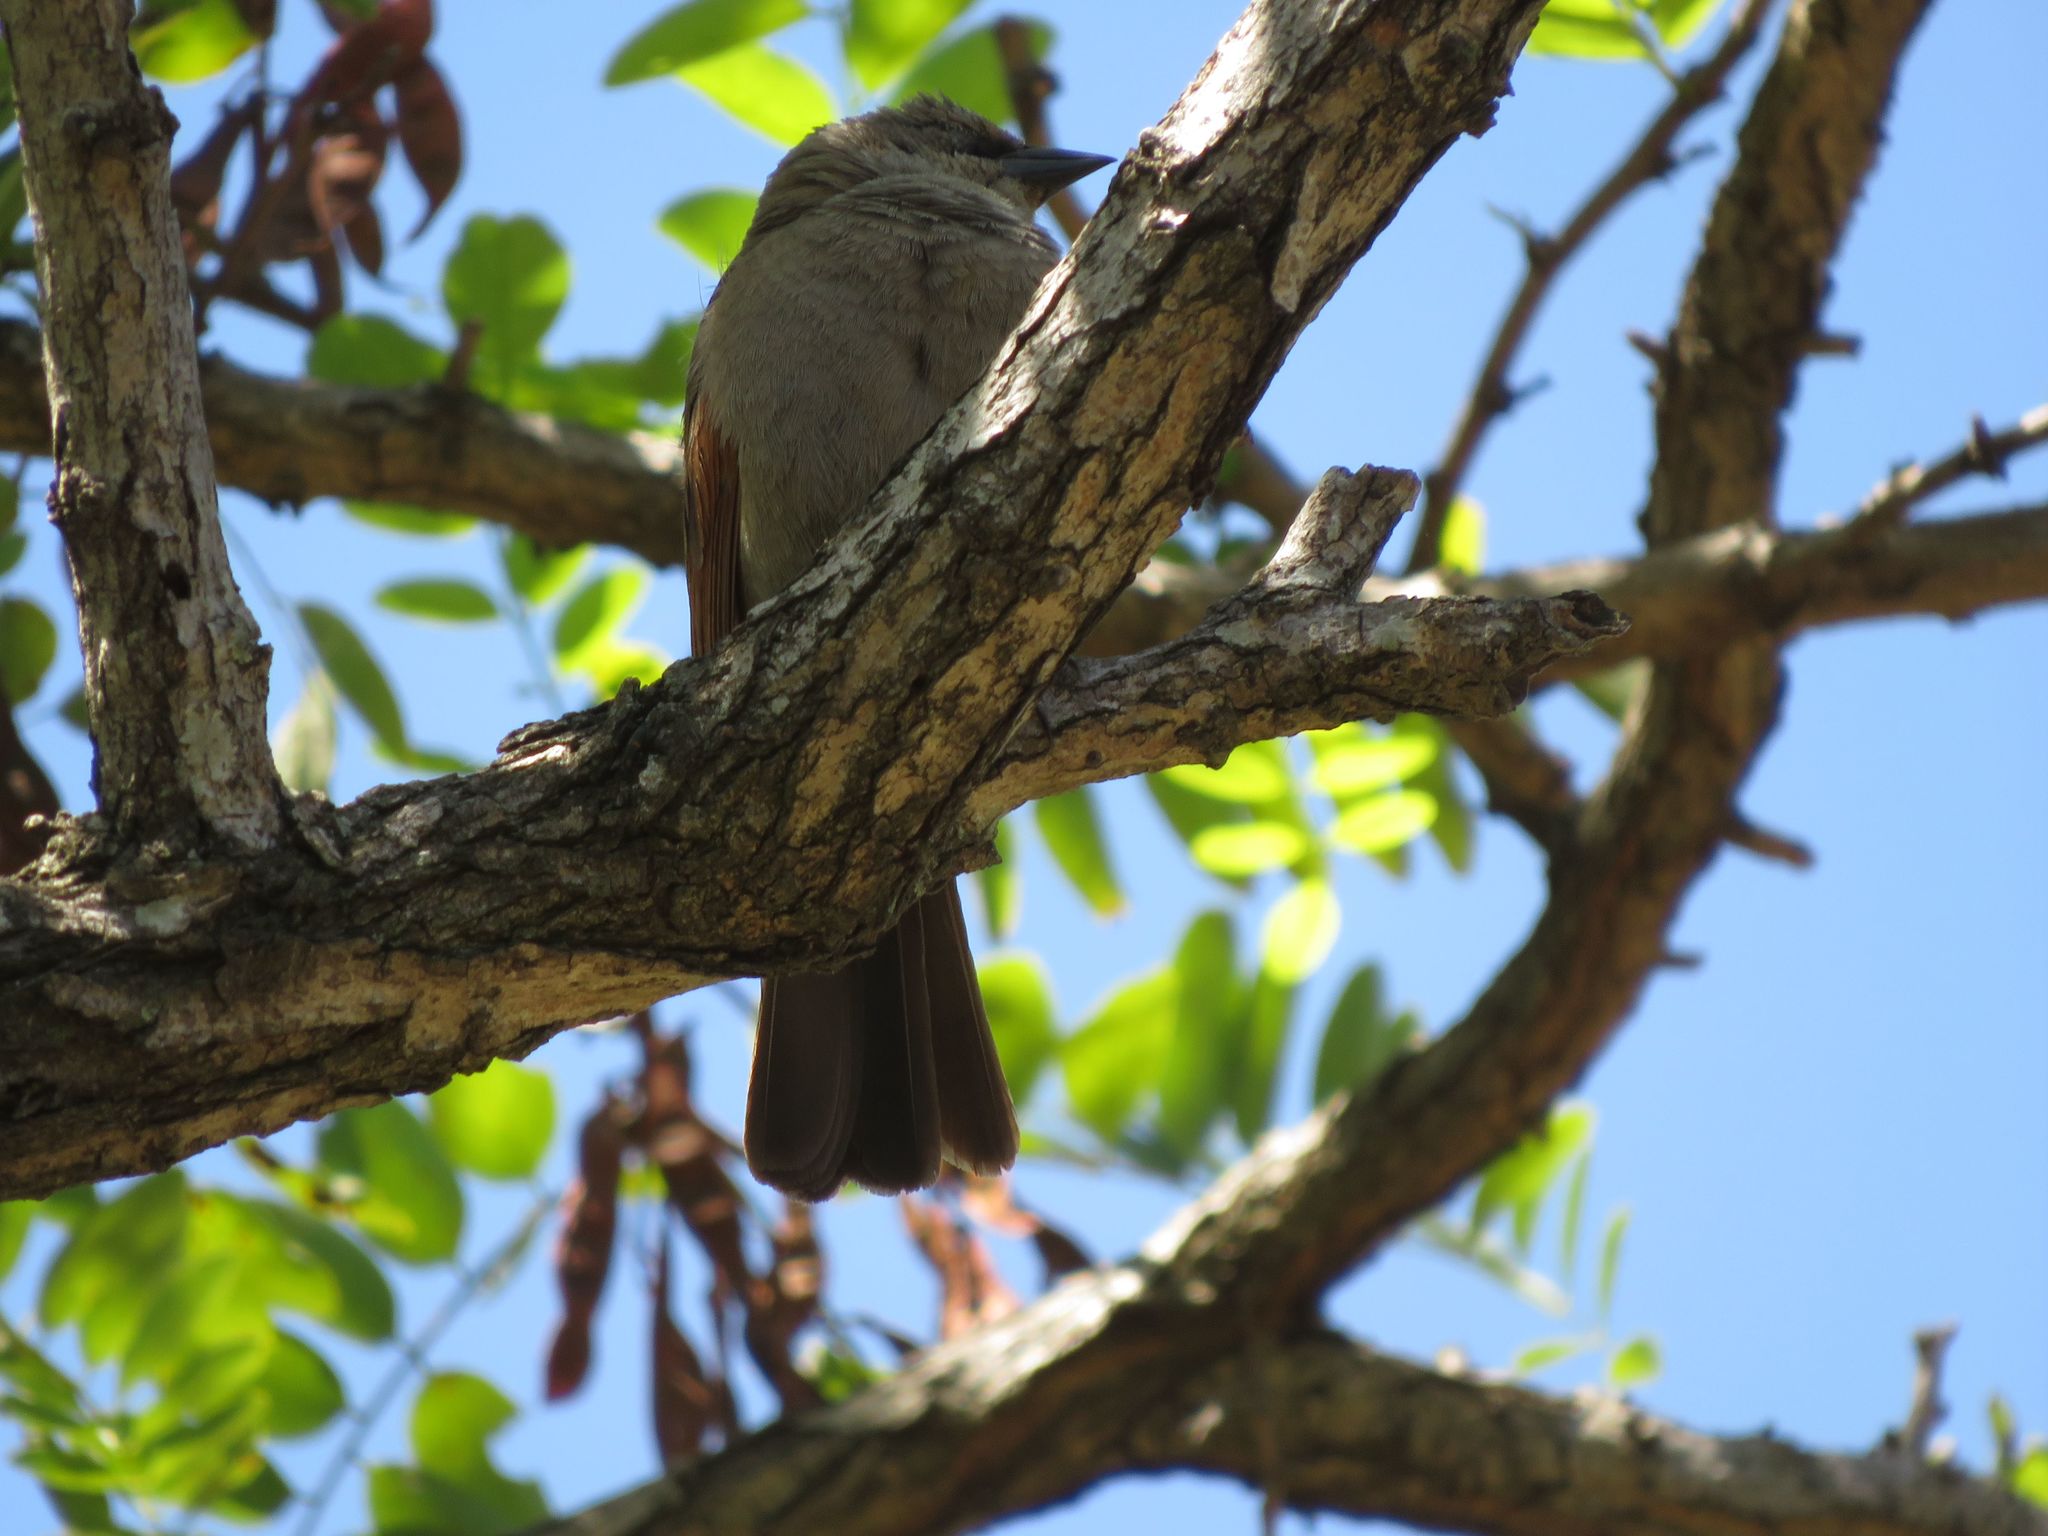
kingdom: Animalia
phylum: Chordata
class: Aves
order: Passeriformes
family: Icteridae
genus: Agelaioides
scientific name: Agelaioides badius
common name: Baywing
